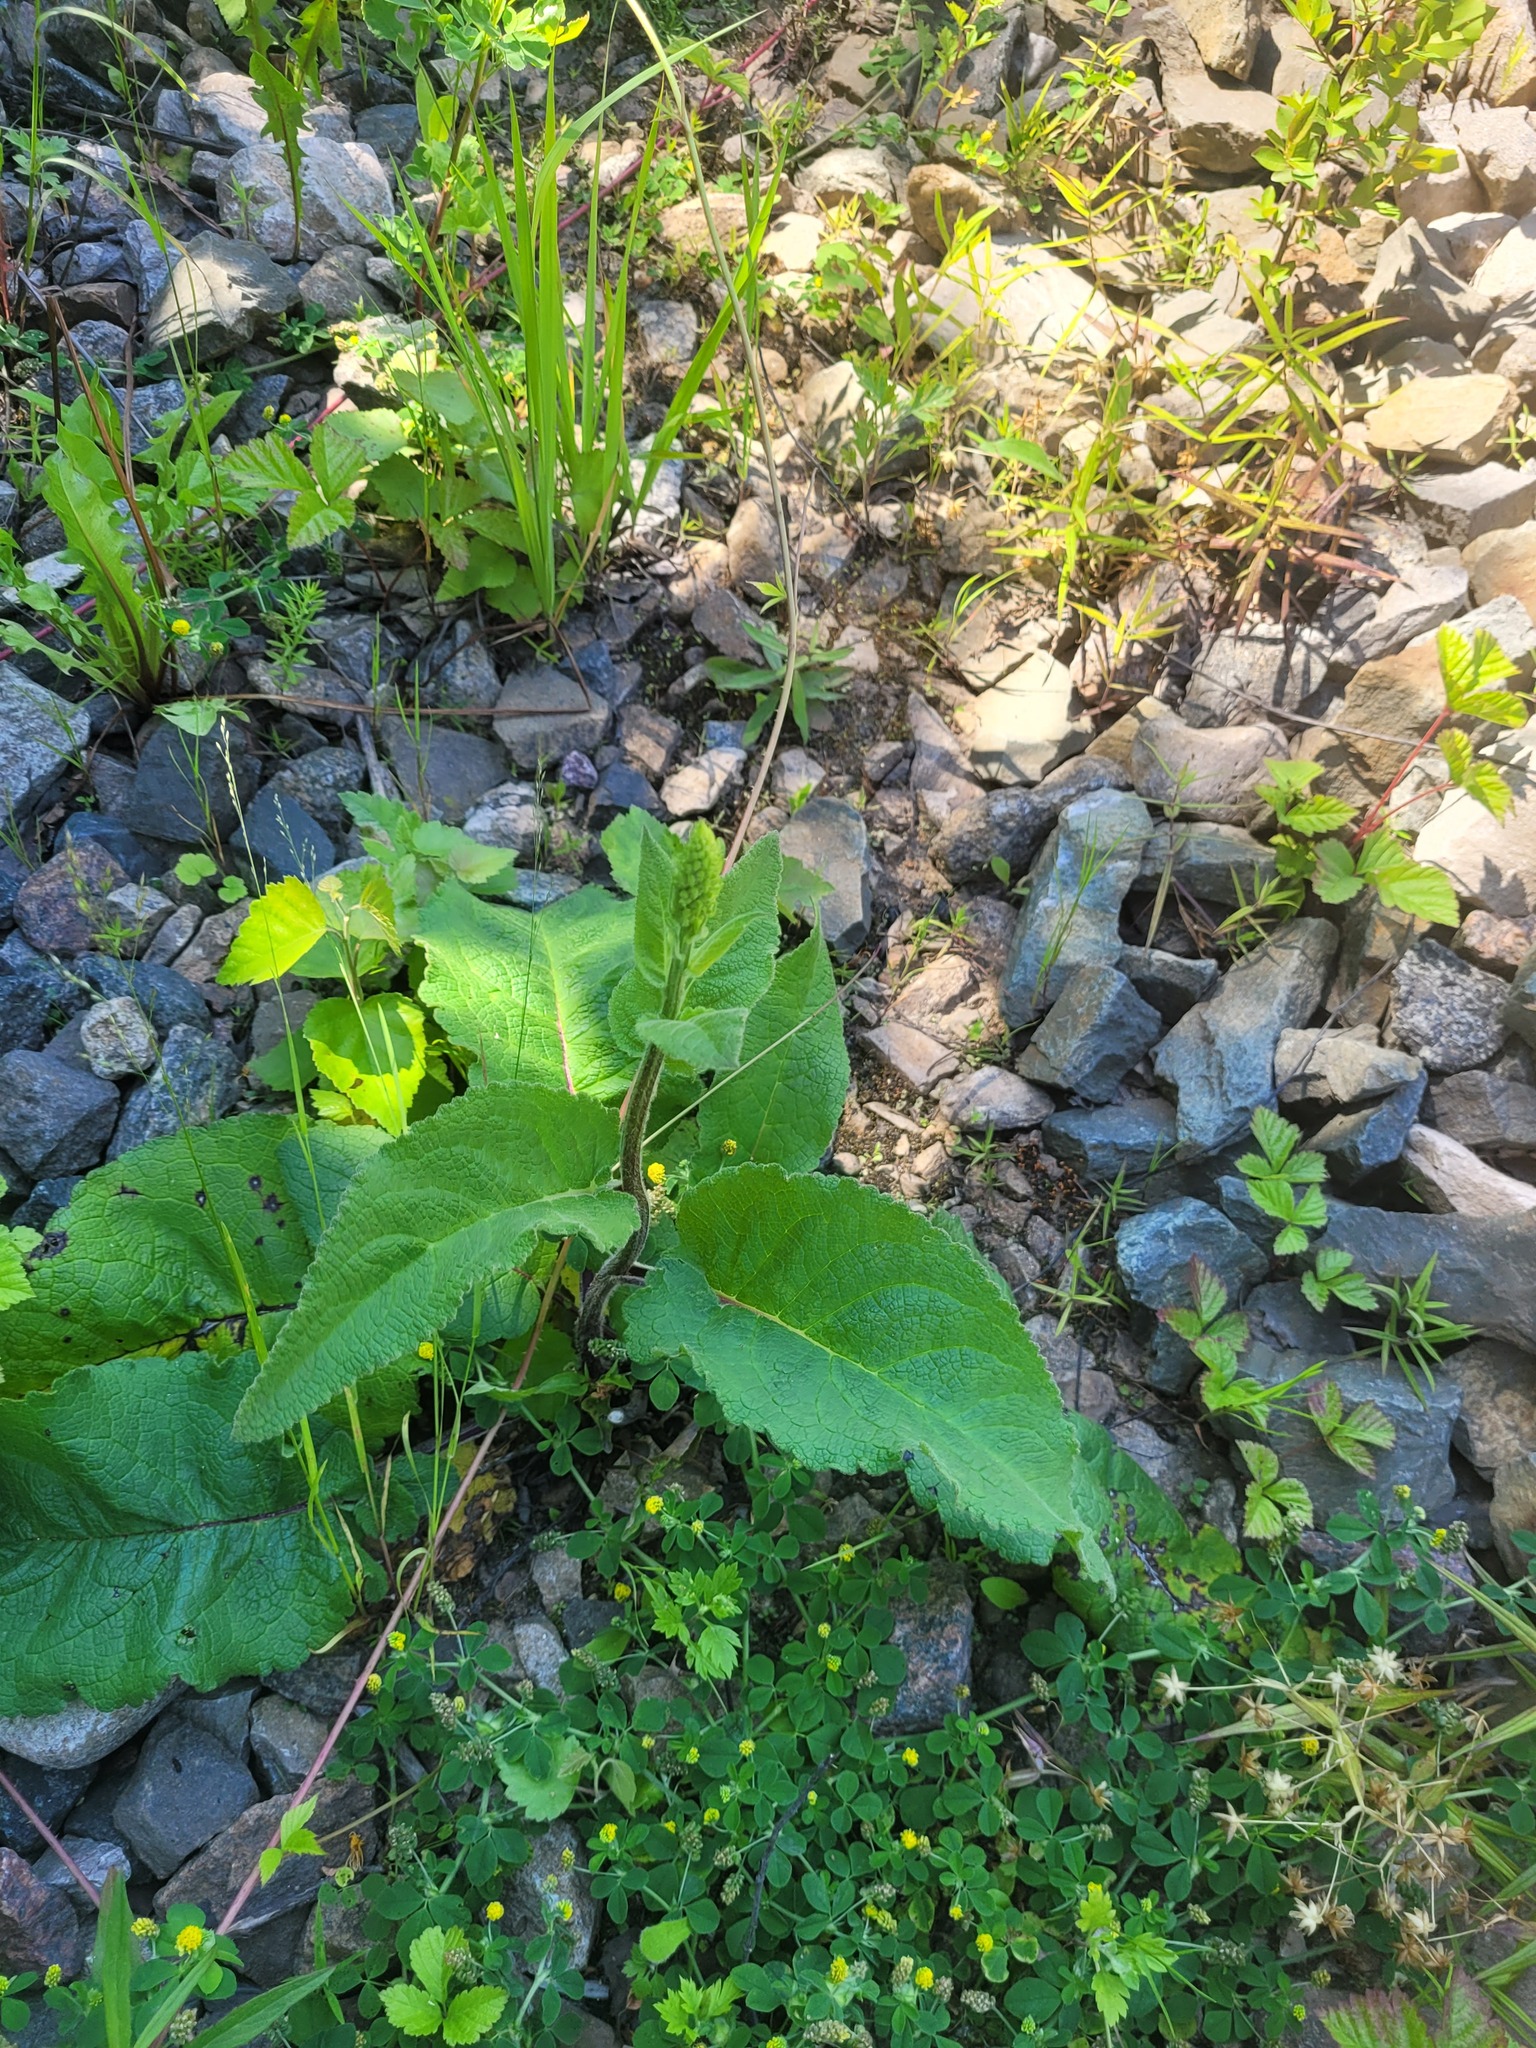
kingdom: Plantae
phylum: Tracheophyta
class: Magnoliopsida
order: Lamiales
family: Scrophulariaceae
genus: Verbascum
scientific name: Verbascum nigrum
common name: Dark mullein
